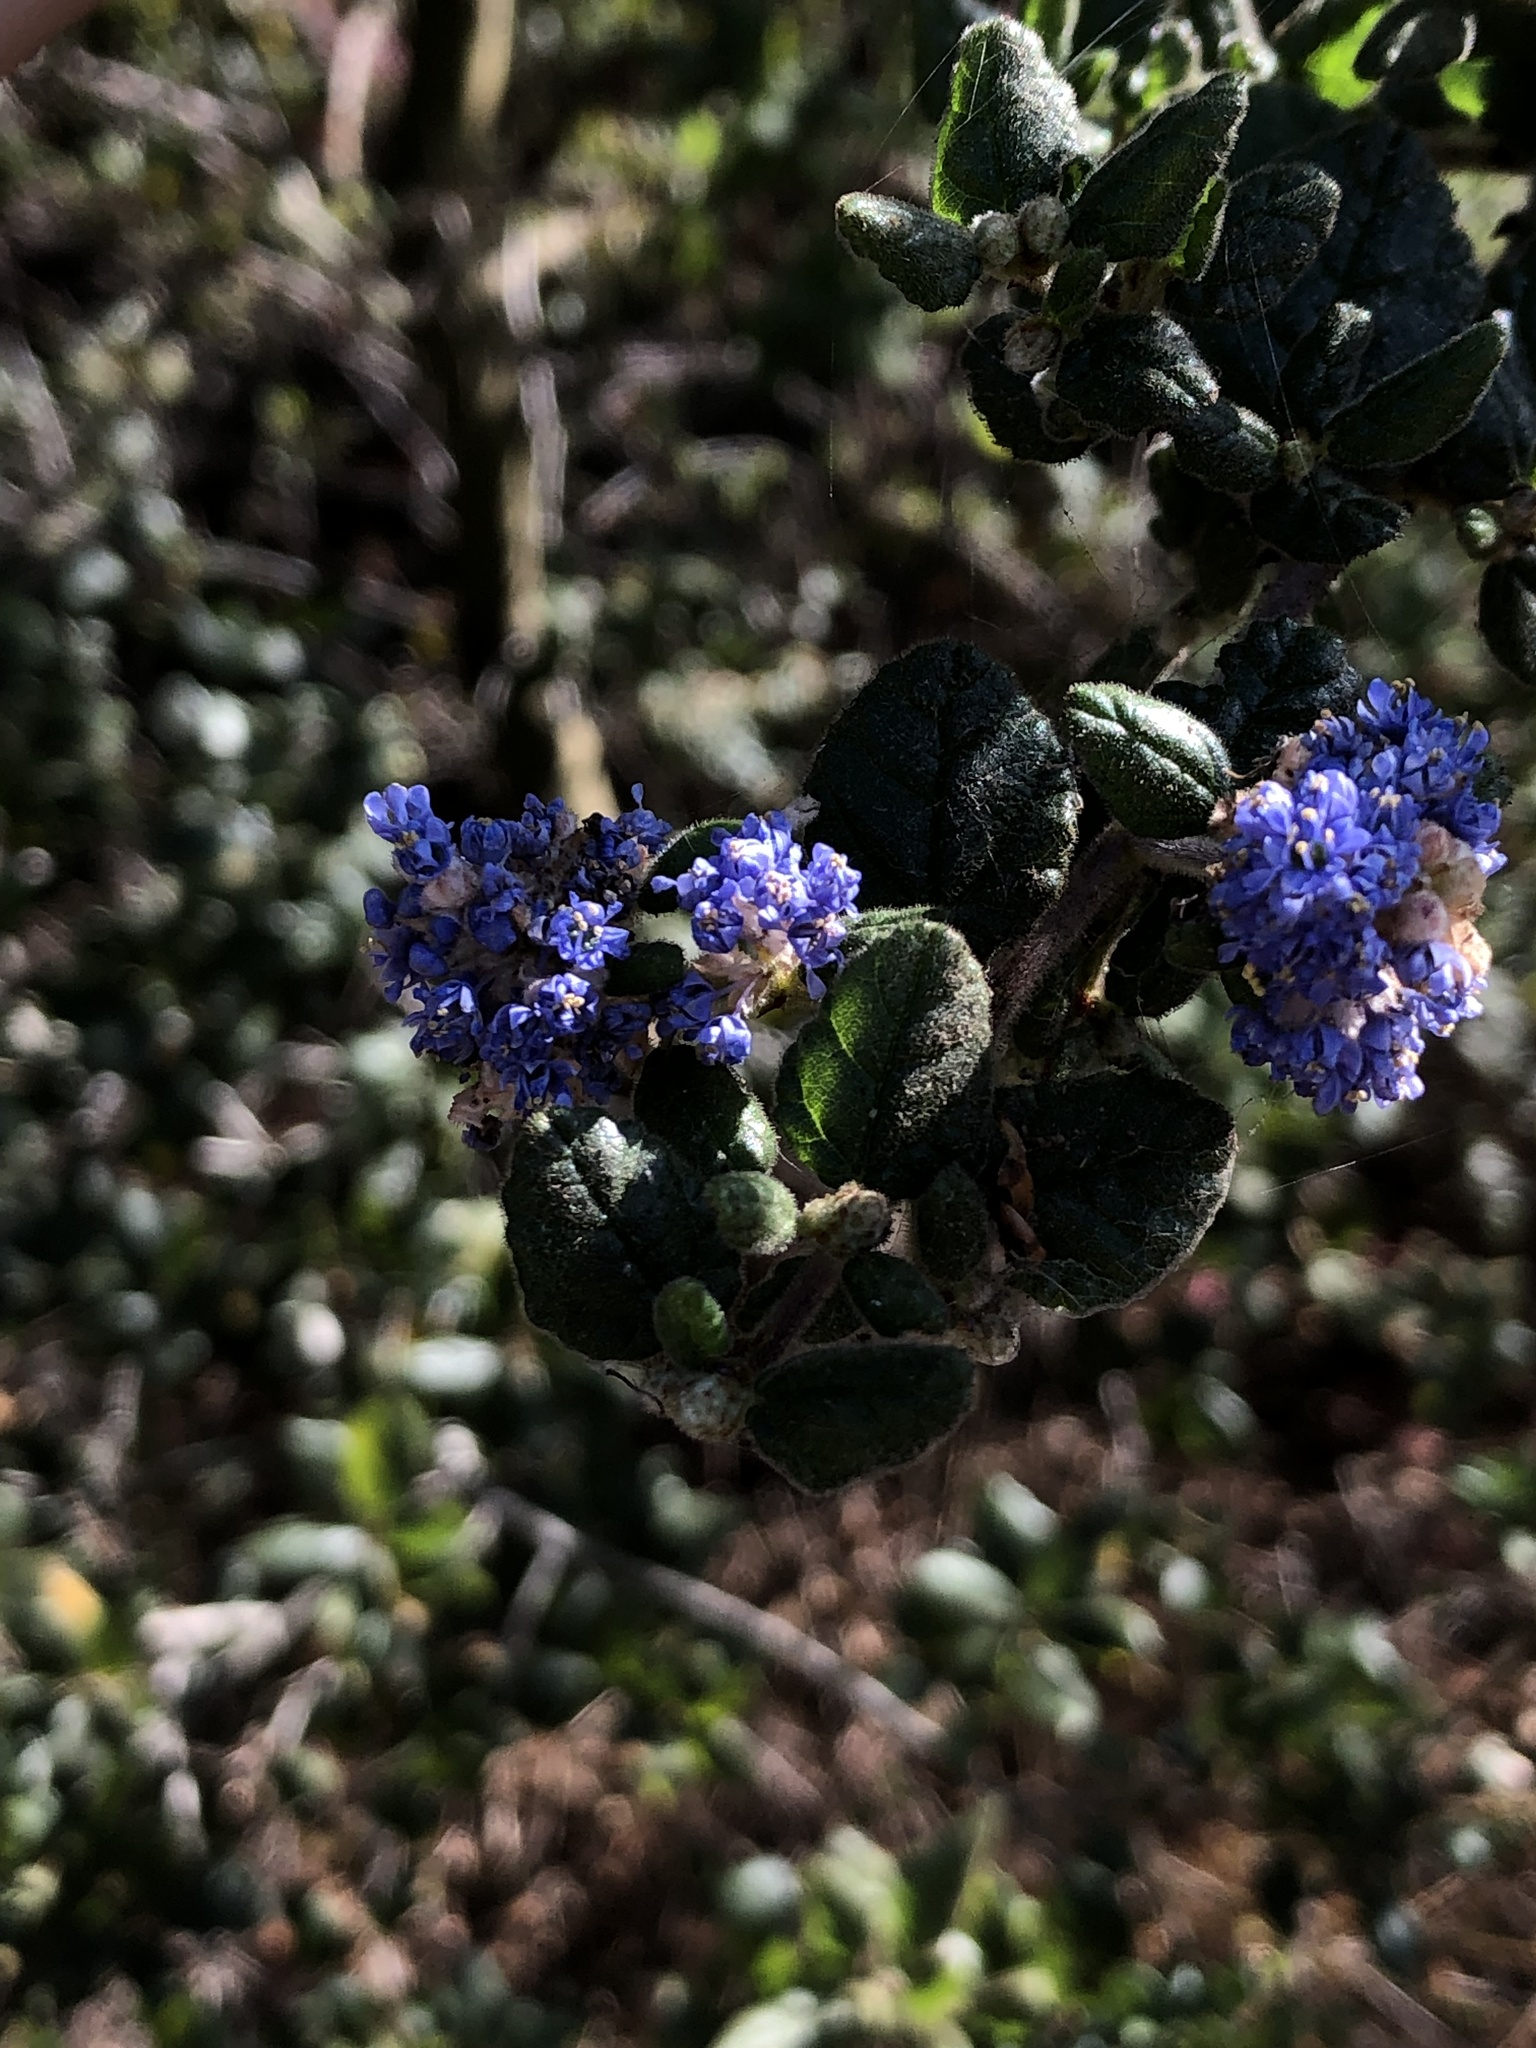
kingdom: Plantae
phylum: Tracheophyta
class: Magnoliopsida
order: Rosales
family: Rhamnaceae
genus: Ceanothus
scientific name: Ceanothus impressus
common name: Santa barbara ceanothus
